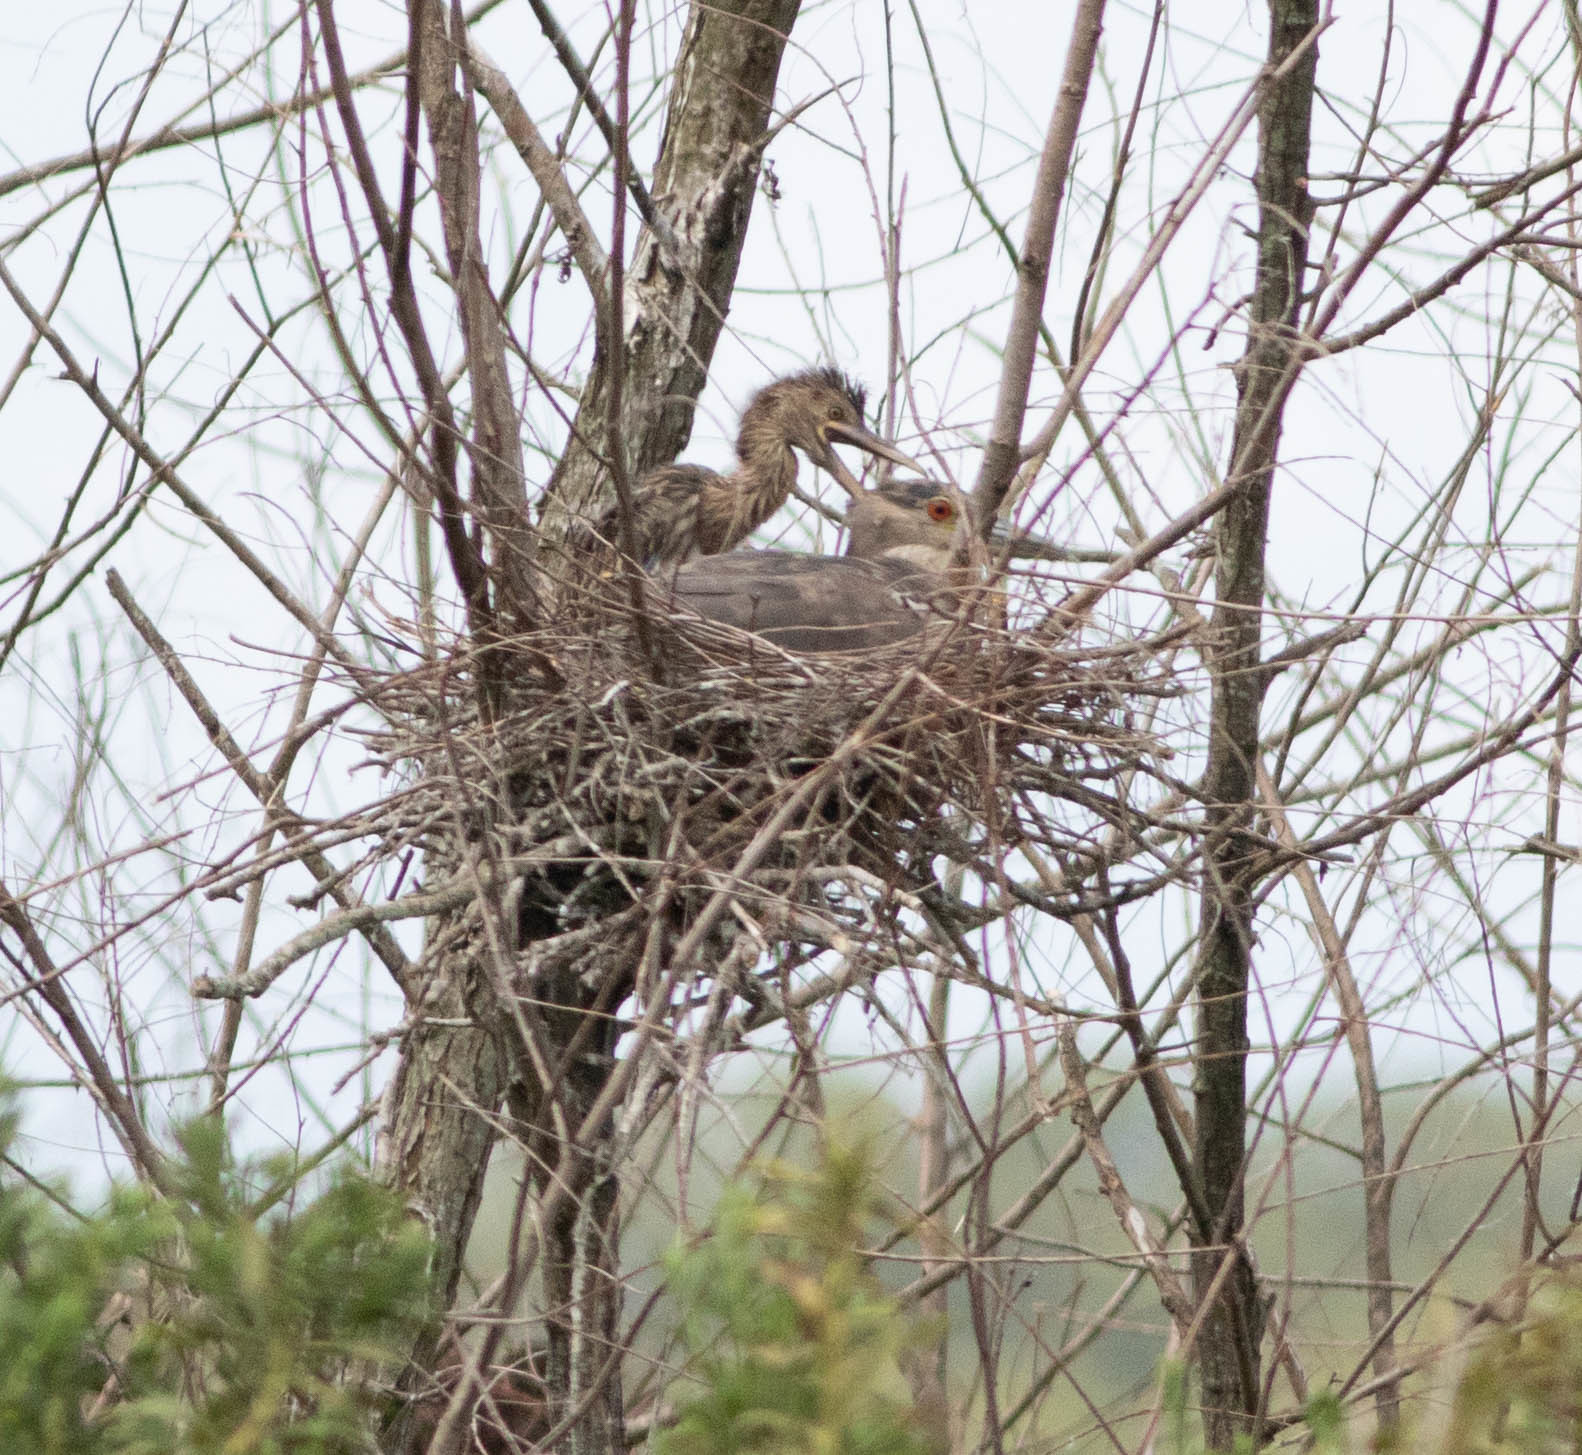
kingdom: Animalia
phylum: Chordata
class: Aves
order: Pelecaniformes
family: Ardeidae
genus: Nycticorax
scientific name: Nycticorax nycticorax
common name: Black-crowned night heron
